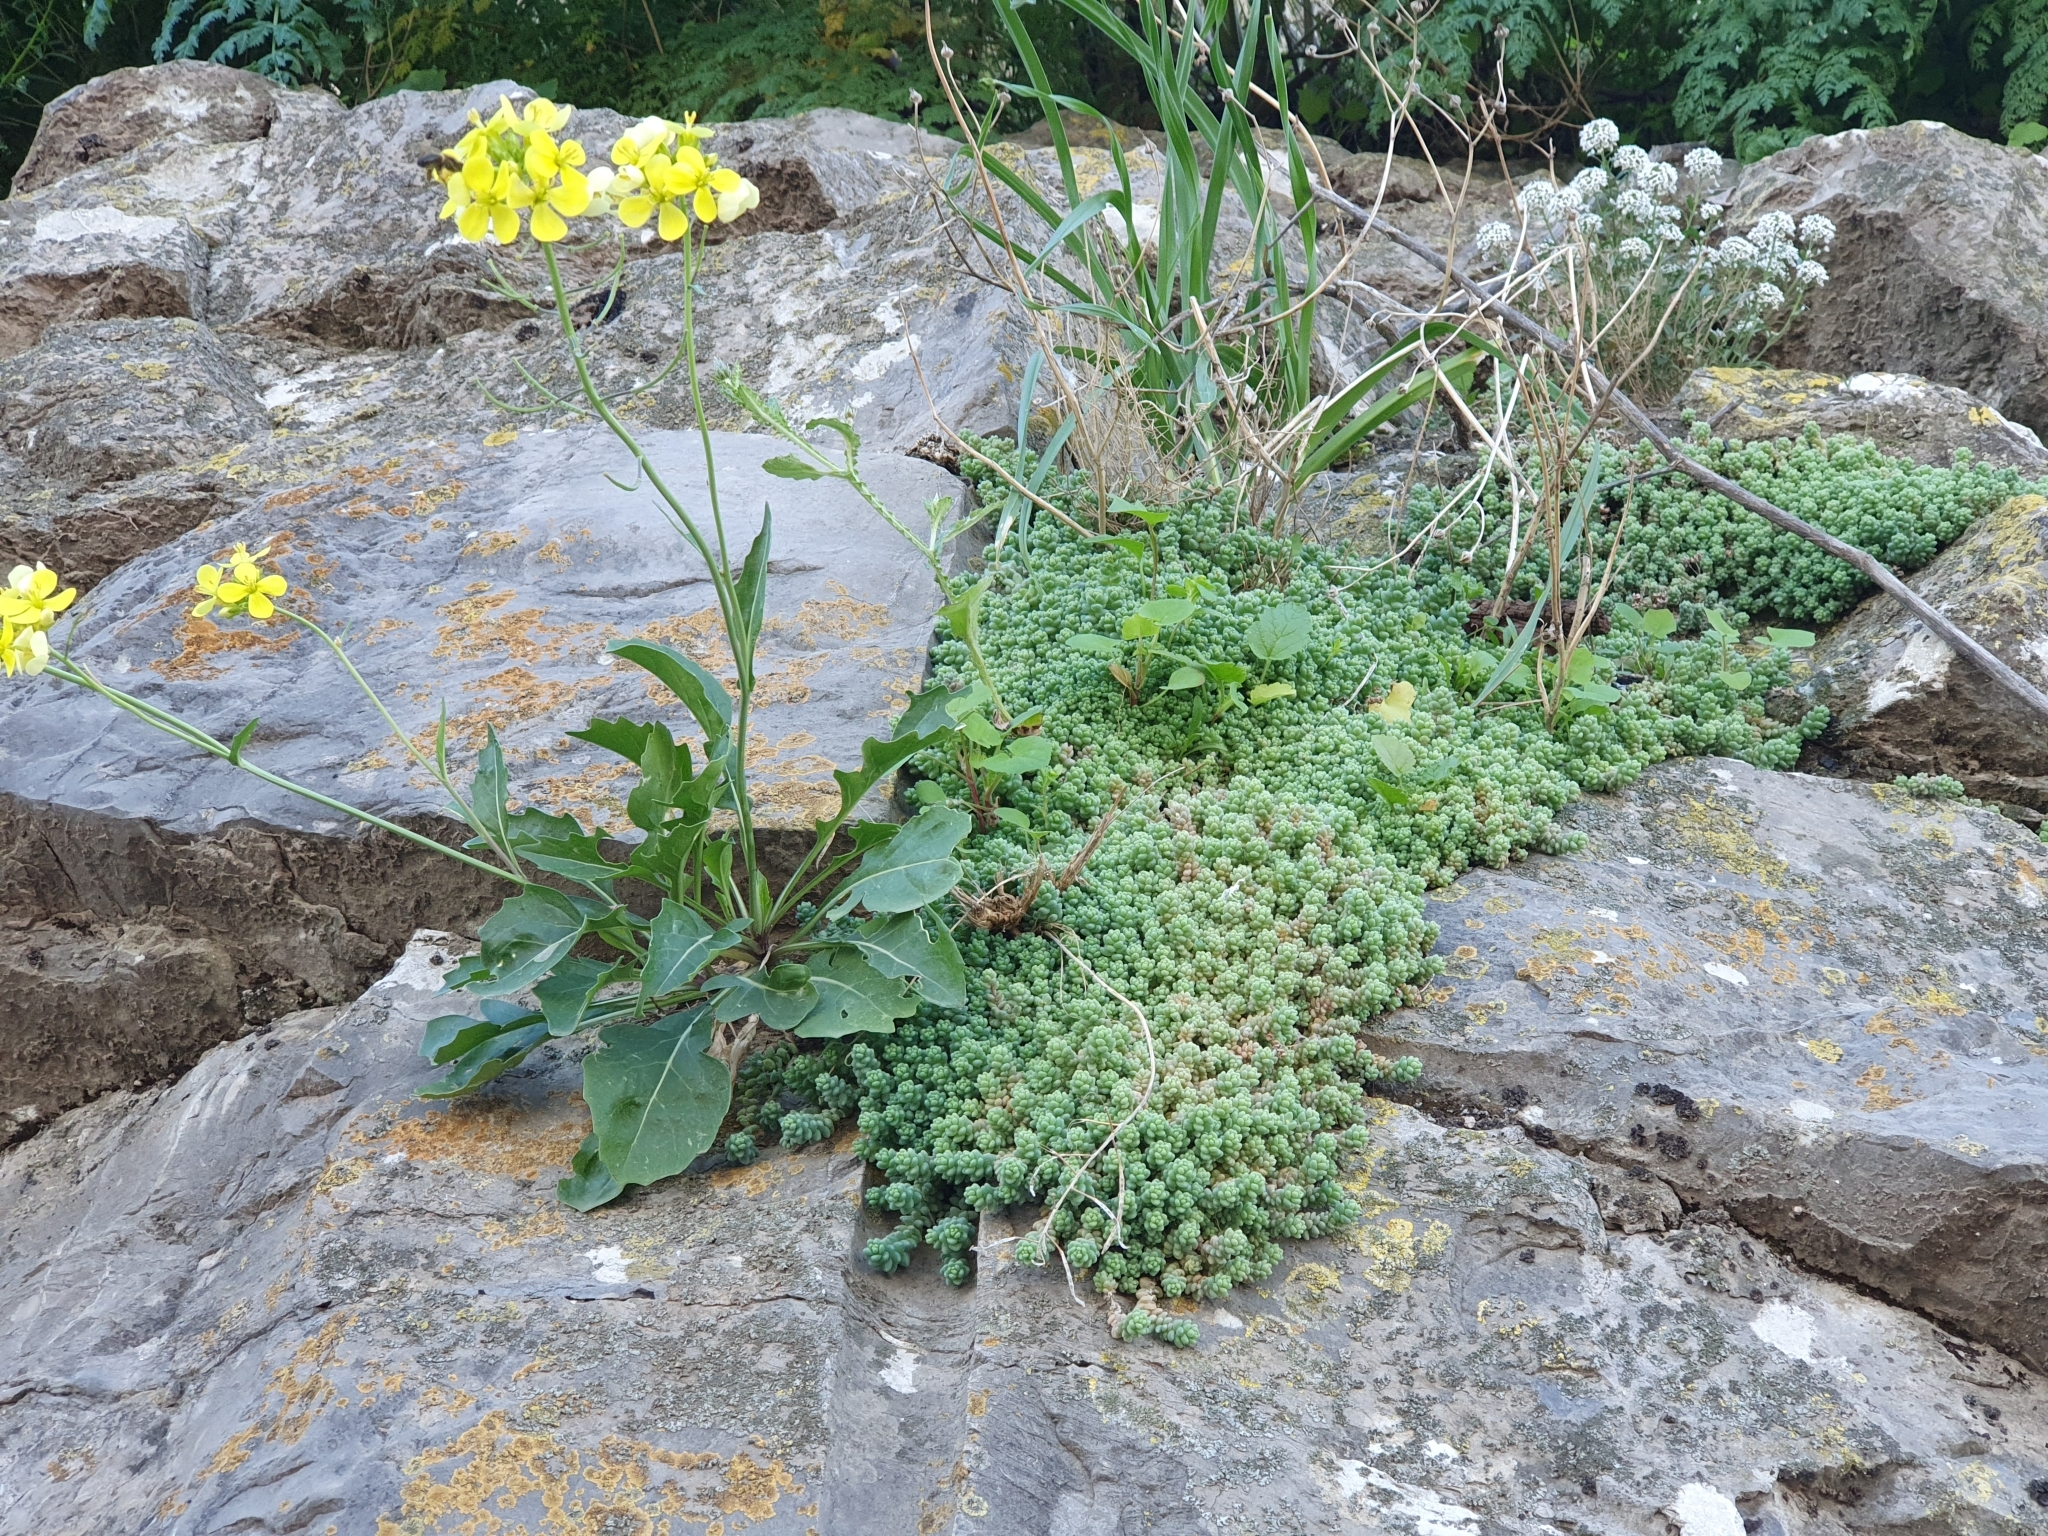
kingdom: Plantae
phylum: Tracheophyta
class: Magnoliopsida
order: Saxifragales
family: Crassulaceae
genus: Sedum
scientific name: Sedum dasyphyllum
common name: Thick-leaf stonecrop
